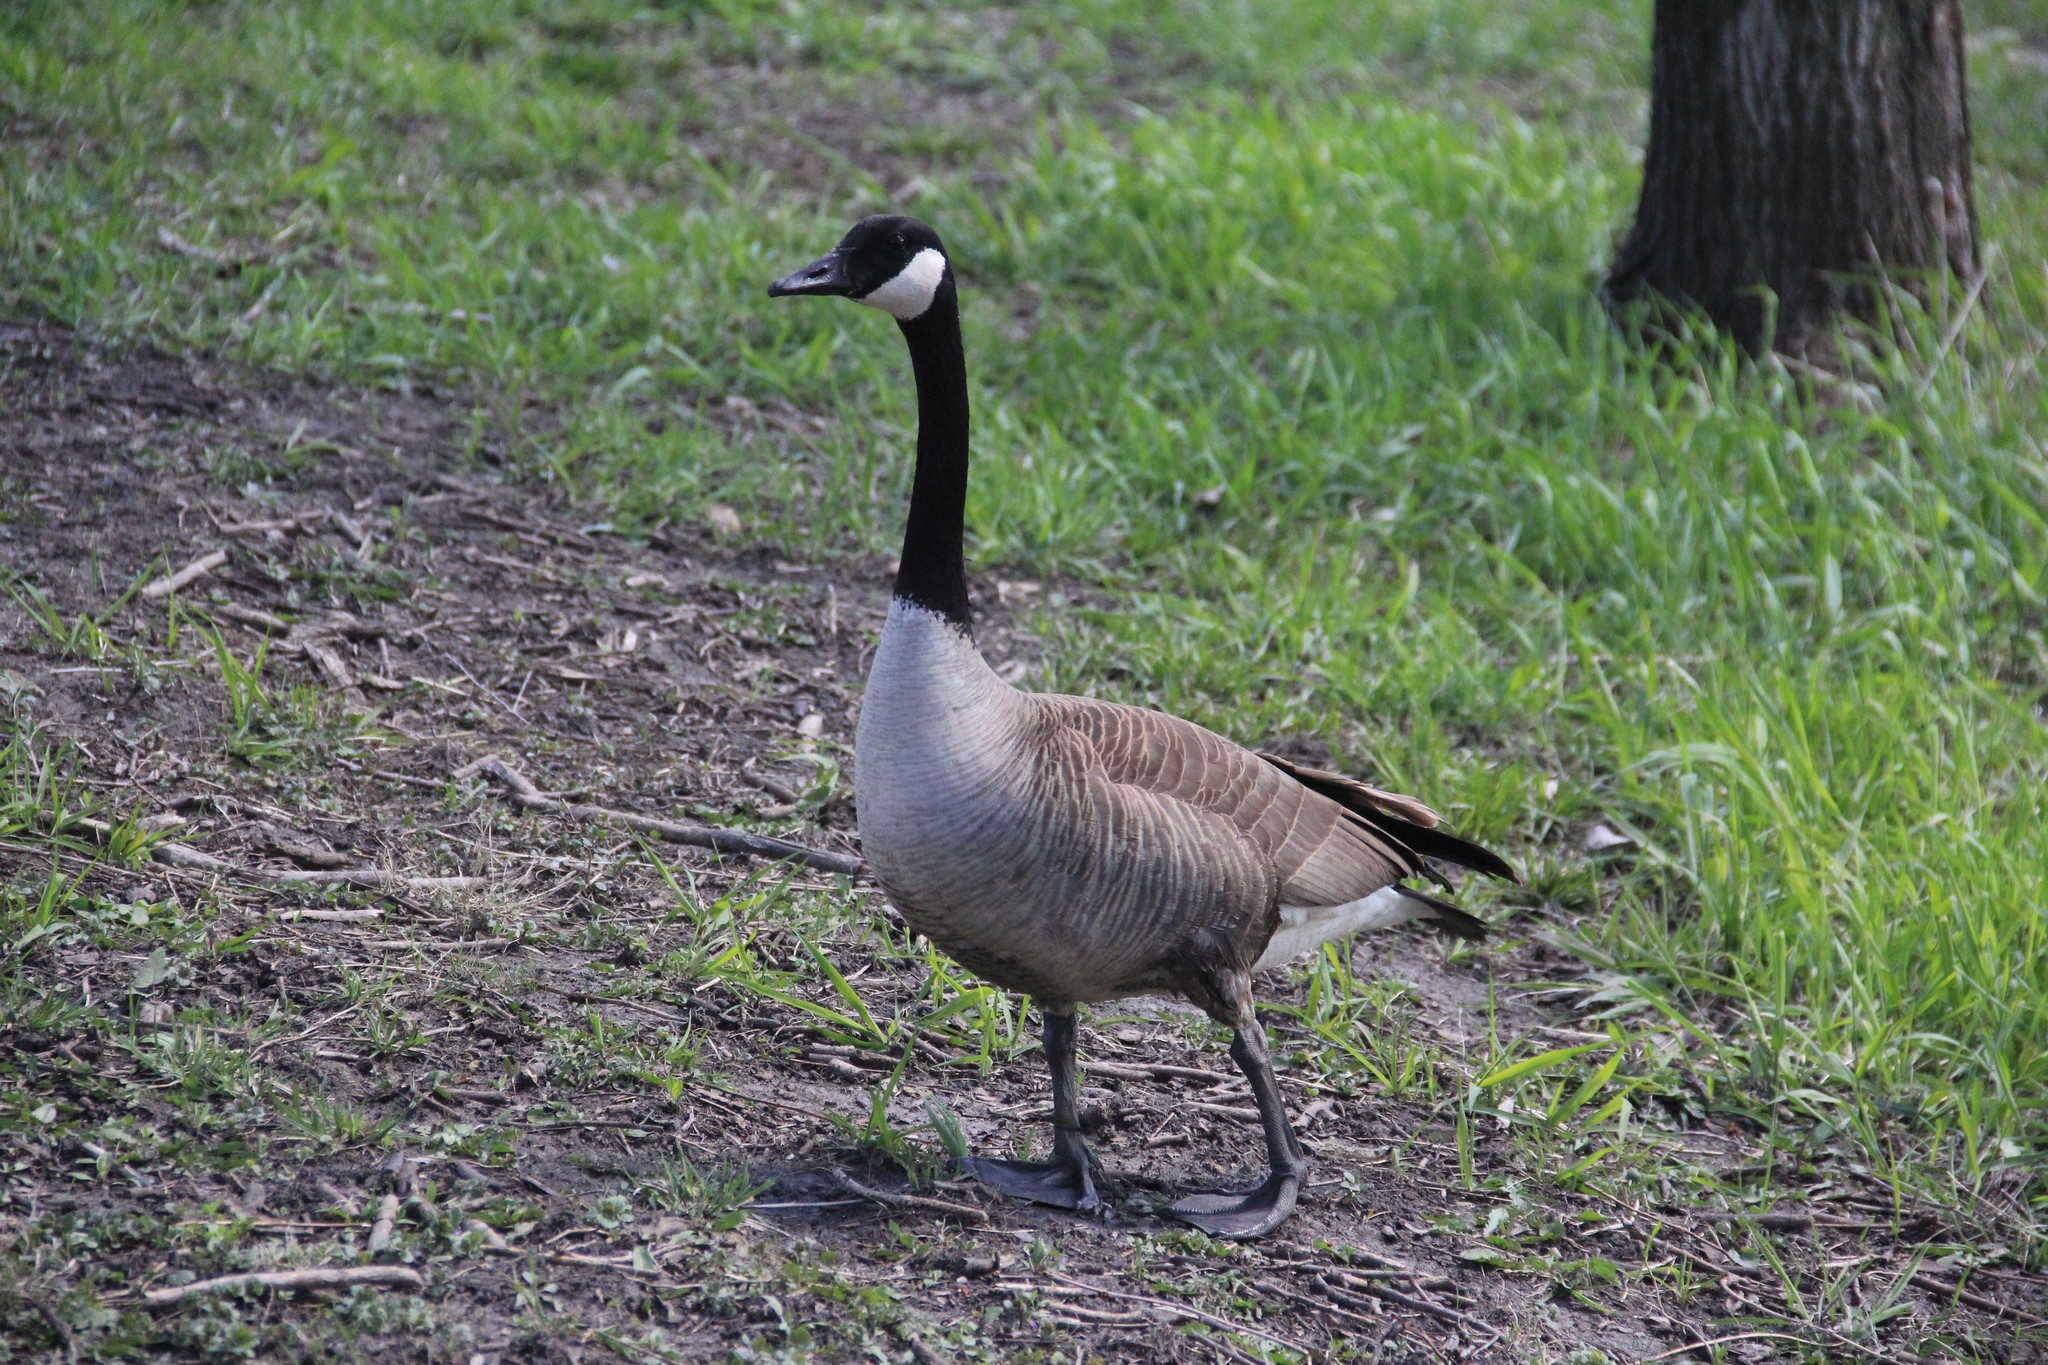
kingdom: Animalia
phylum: Chordata
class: Aves
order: Anseriformes
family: Anatidae
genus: Branta
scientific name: Branta canadensis
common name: Canada goose
